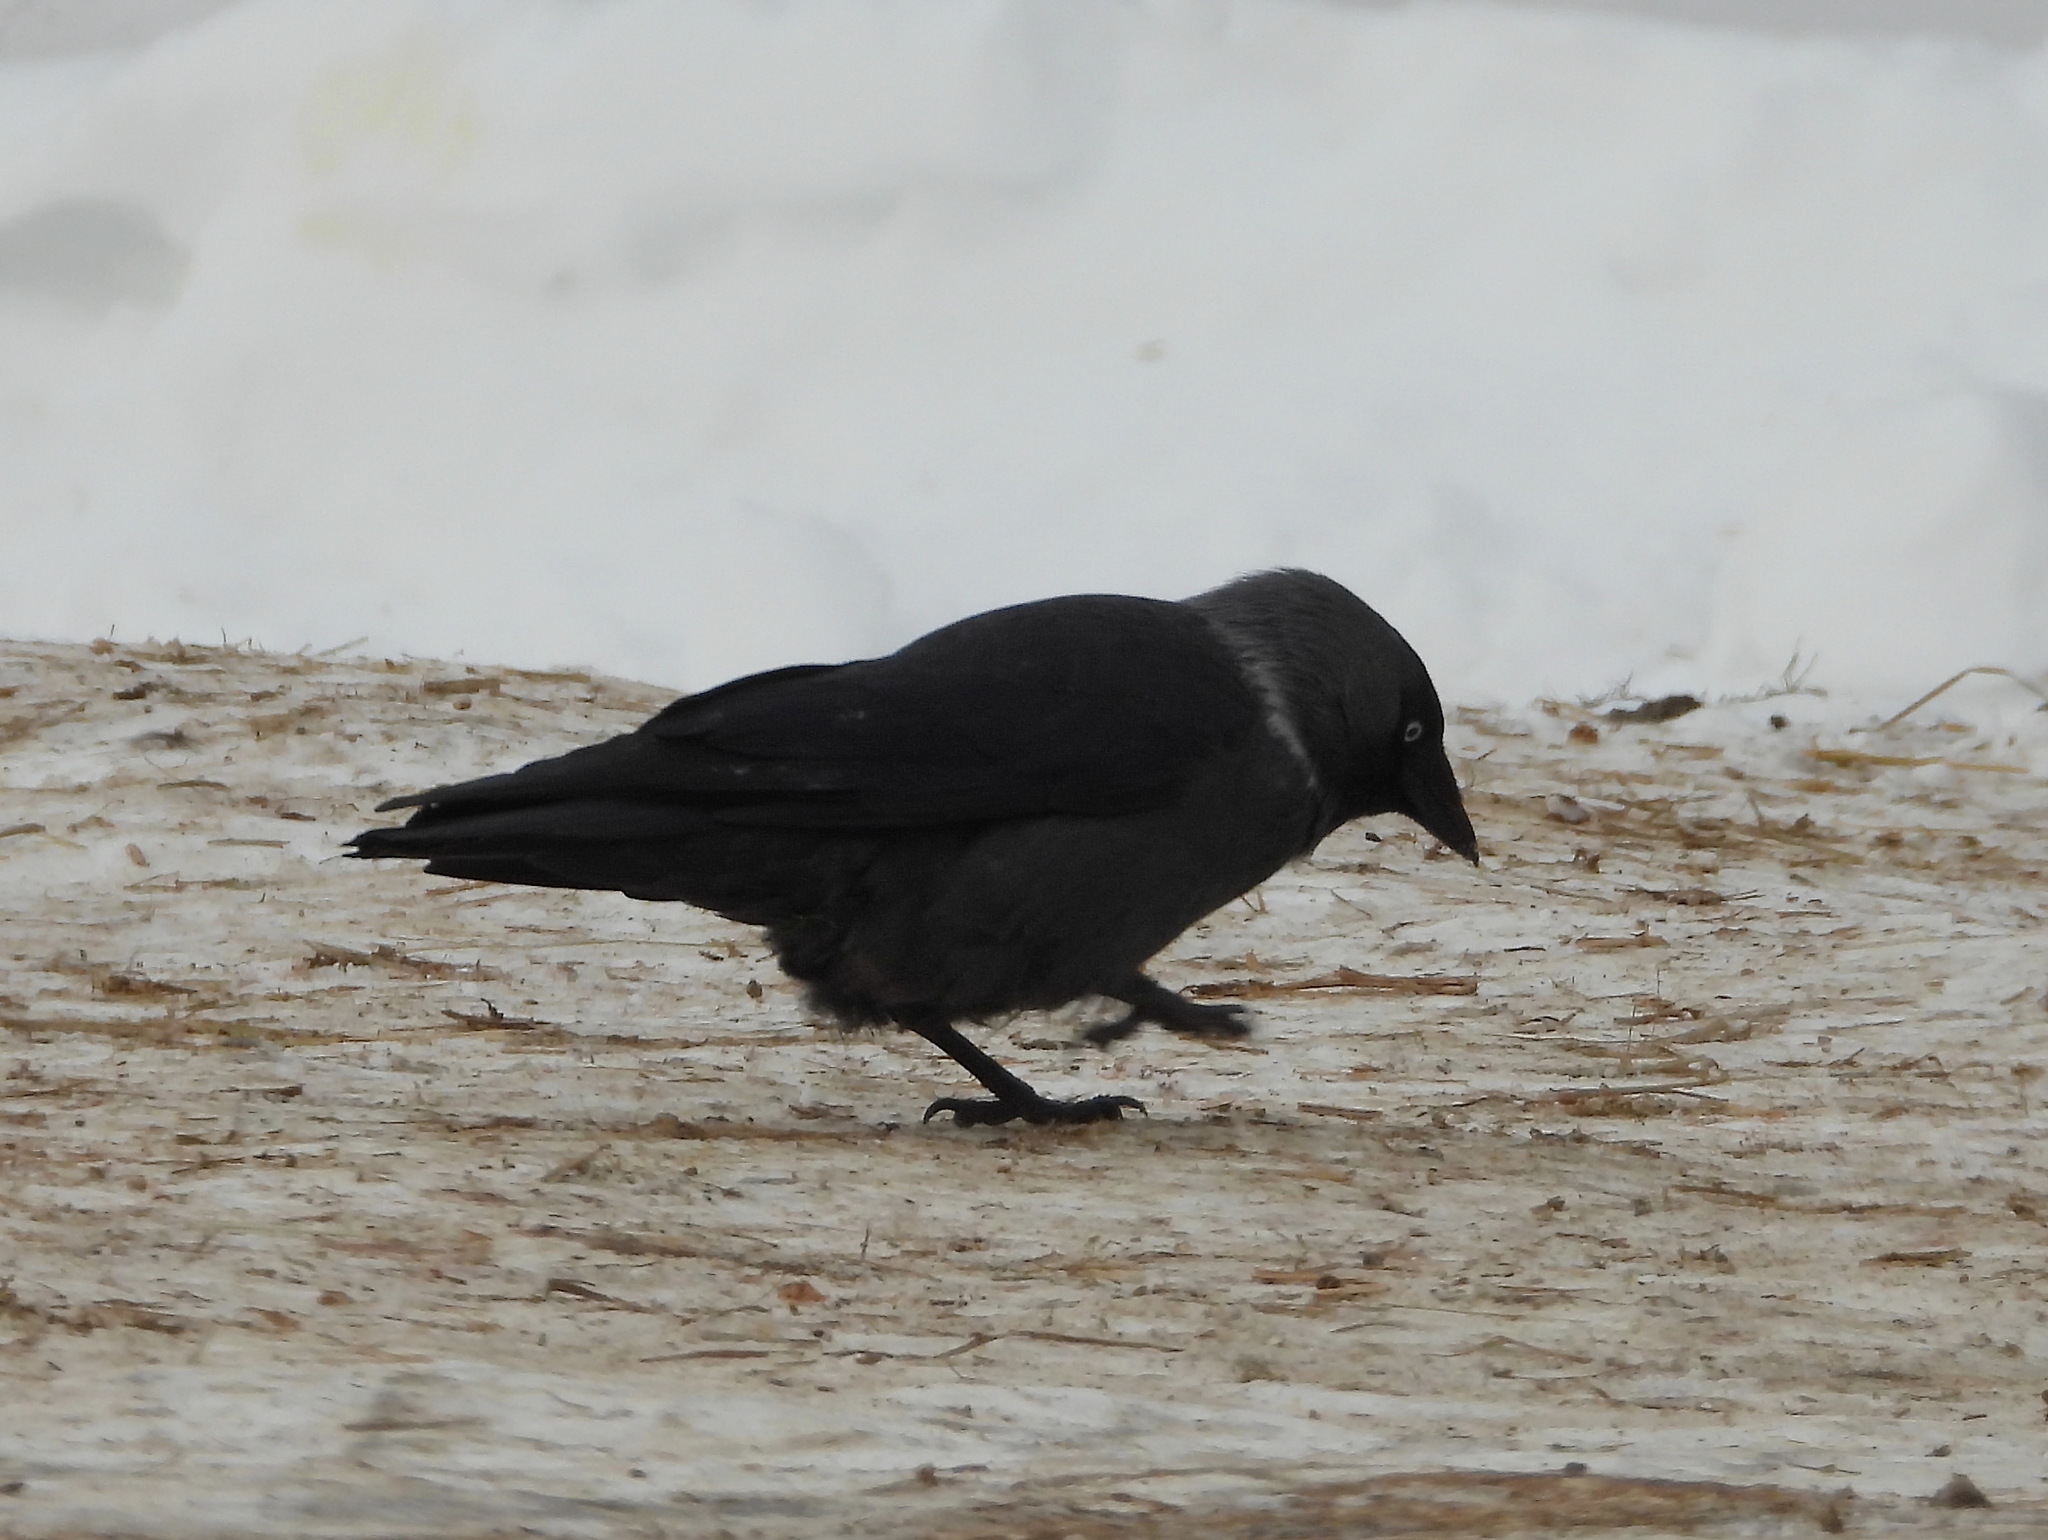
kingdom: Animalia
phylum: Chordata
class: Aves
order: Passeriformes
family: Corvidae
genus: Coloeus
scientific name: Coloeus monedula
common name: Western jackdaw
